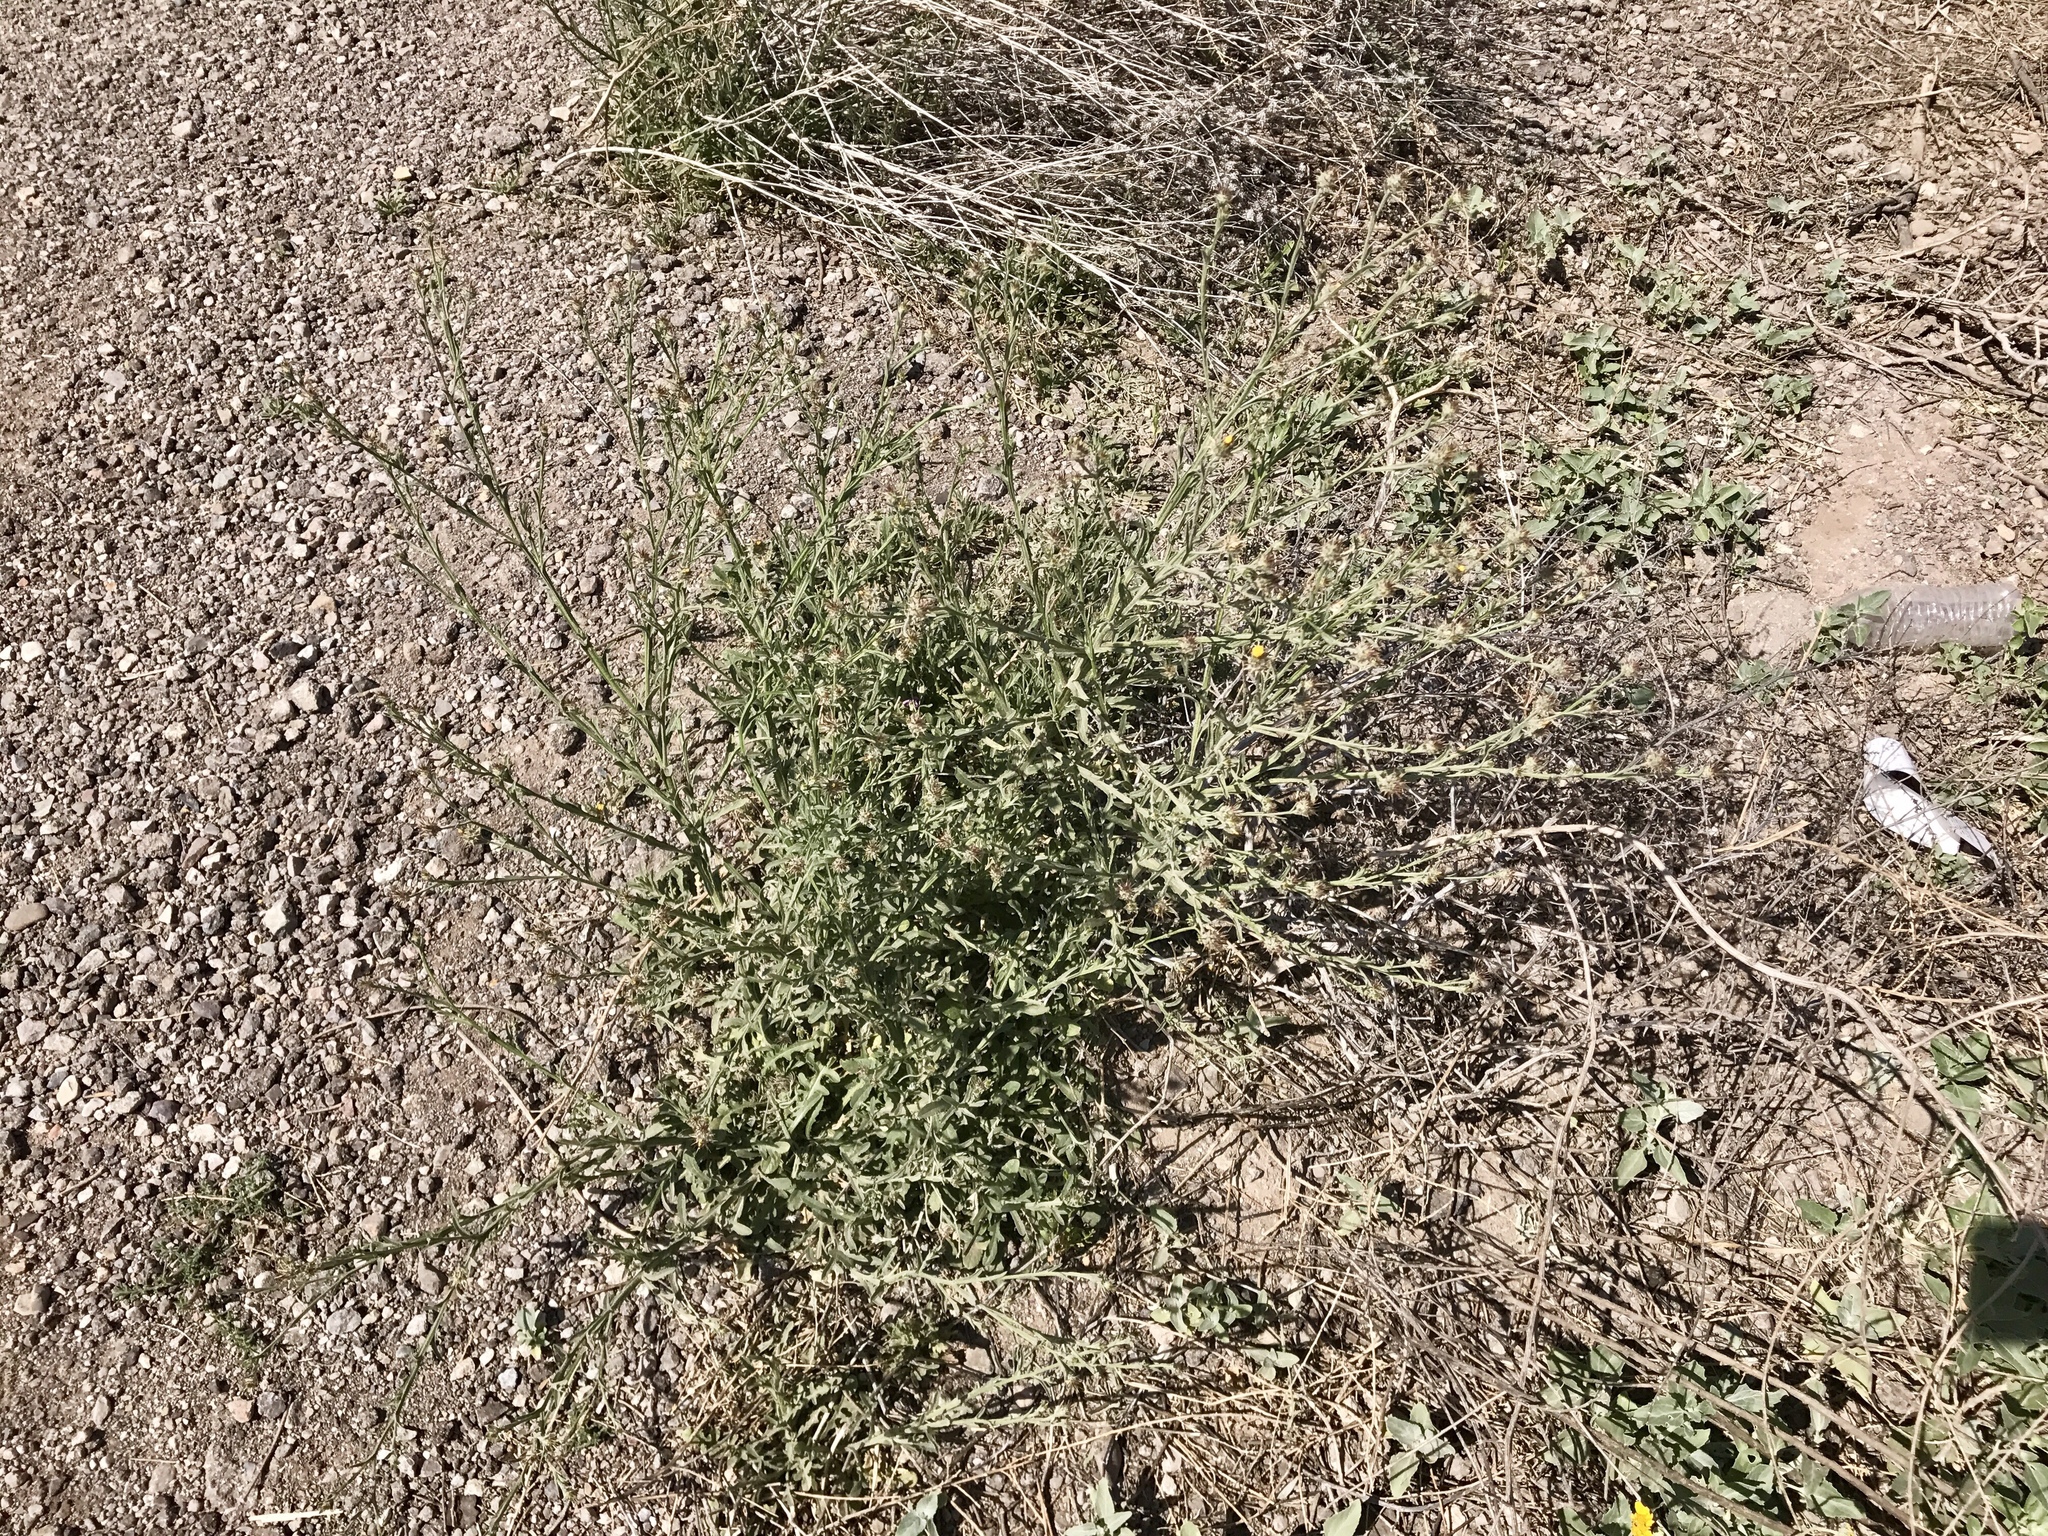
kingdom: Plantae
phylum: Tracheophyta
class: Magnoliopsida
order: Asterales
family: Asteraceae
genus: Centaurea
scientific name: Centaurea melitensis
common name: Maltese star-thistle
